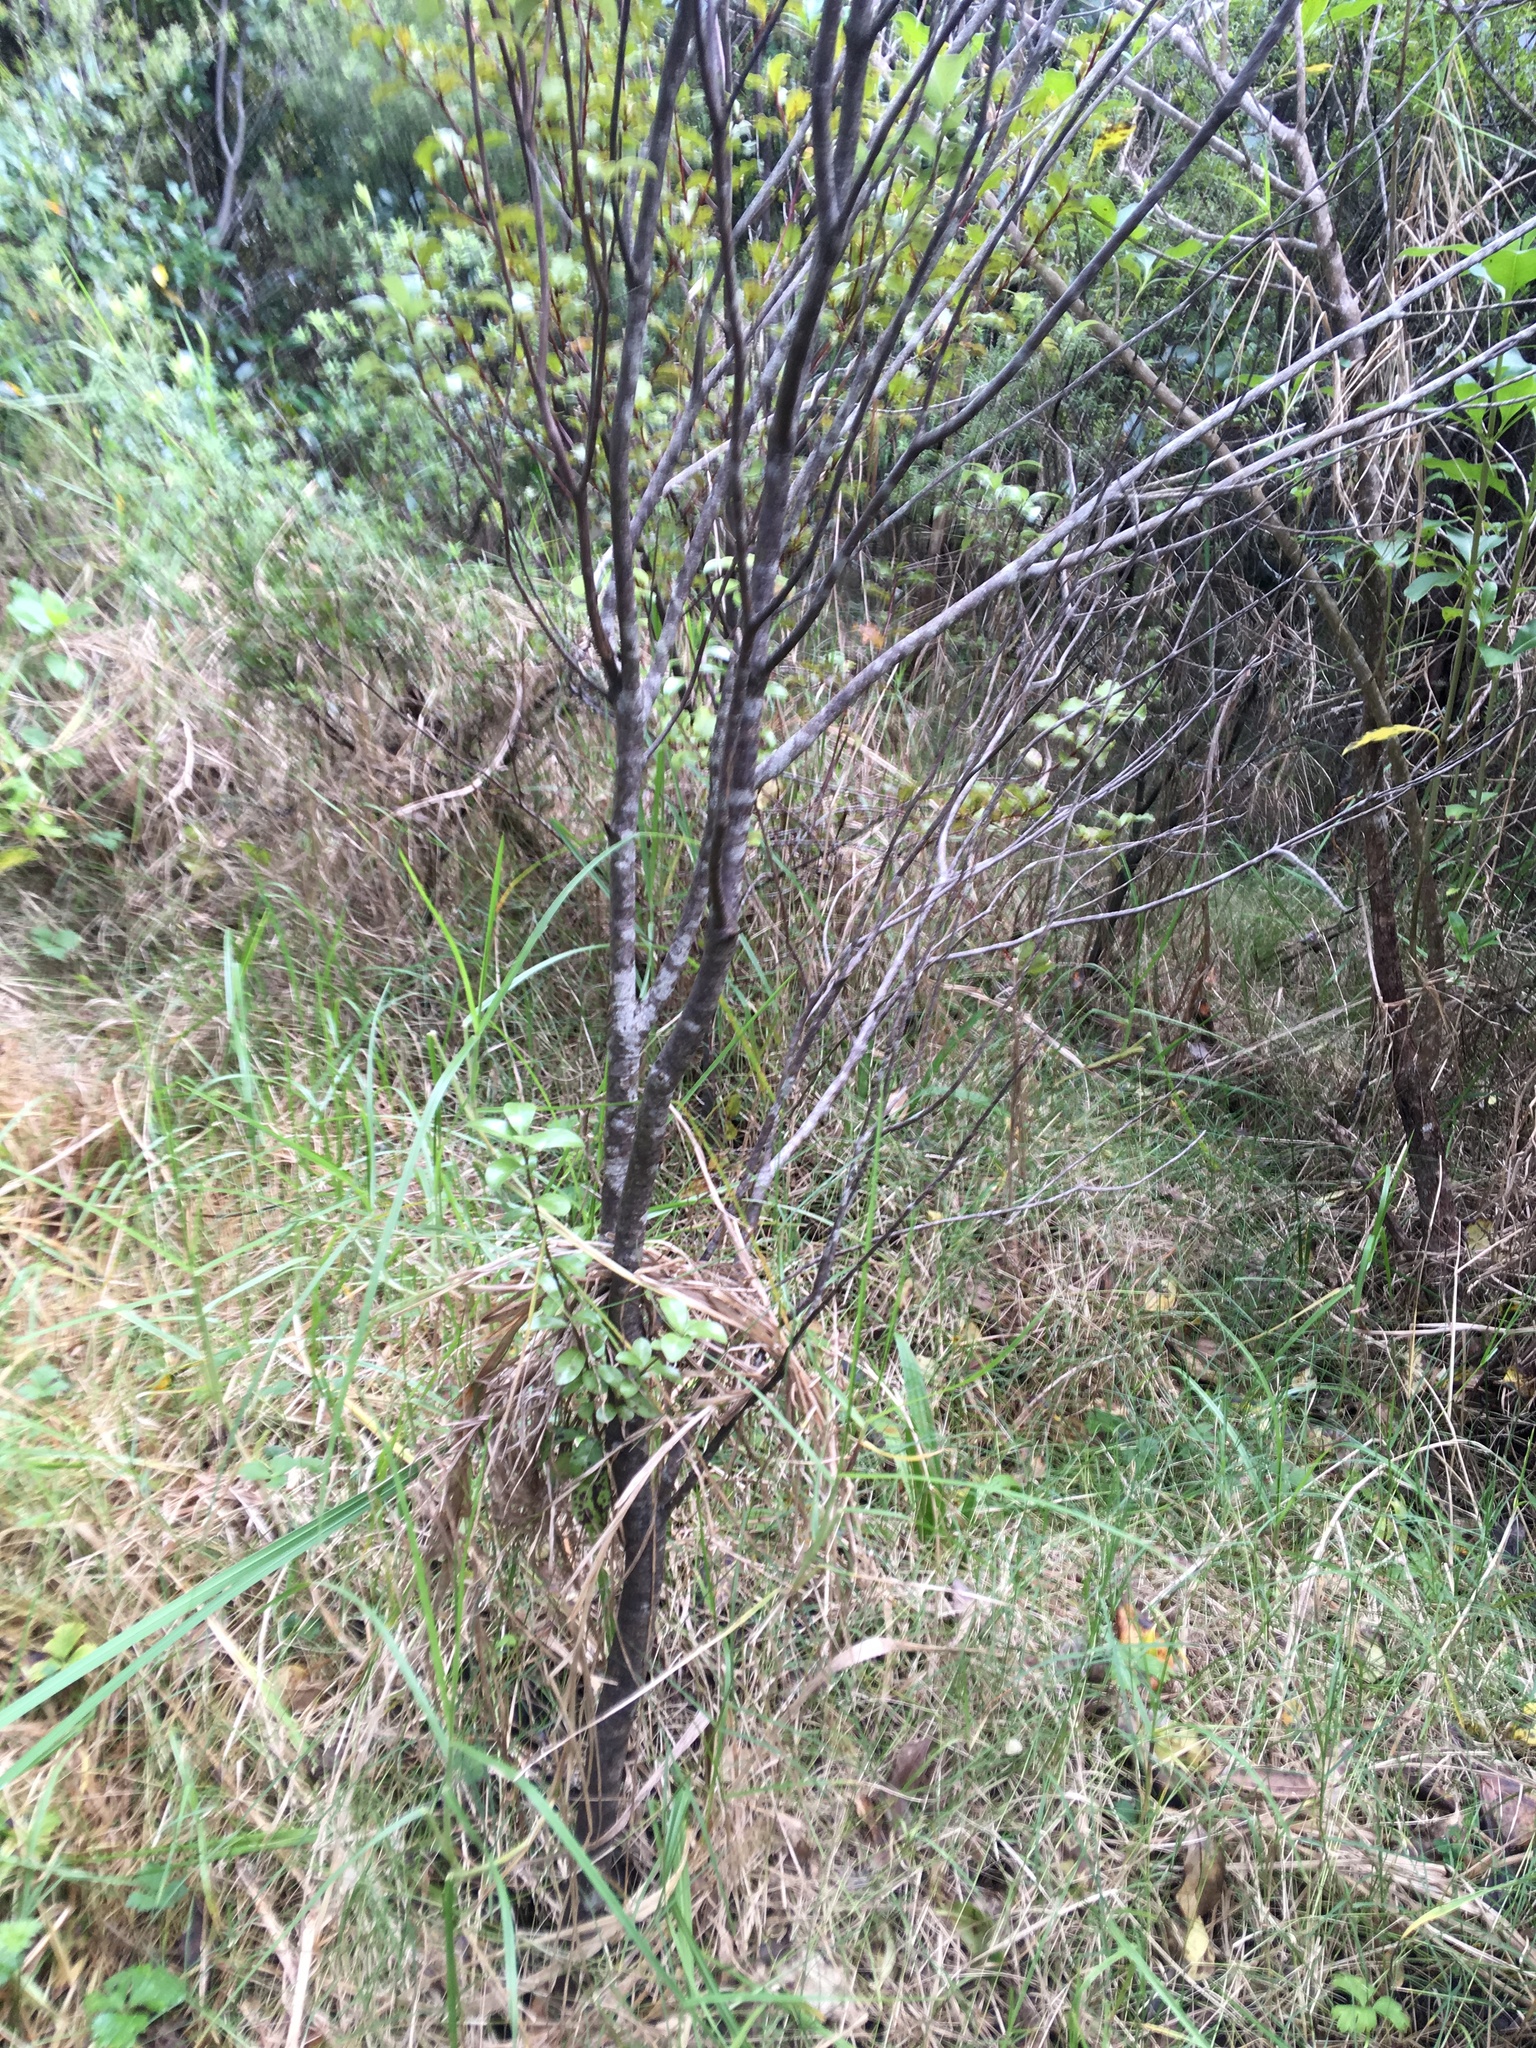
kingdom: Plantae
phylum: Tracheophyta
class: Magnoliopsida
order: Apiales
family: Pittosporaceae
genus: Pittosporum
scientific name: Pittosporum tenuifolium
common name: Kohuhu
